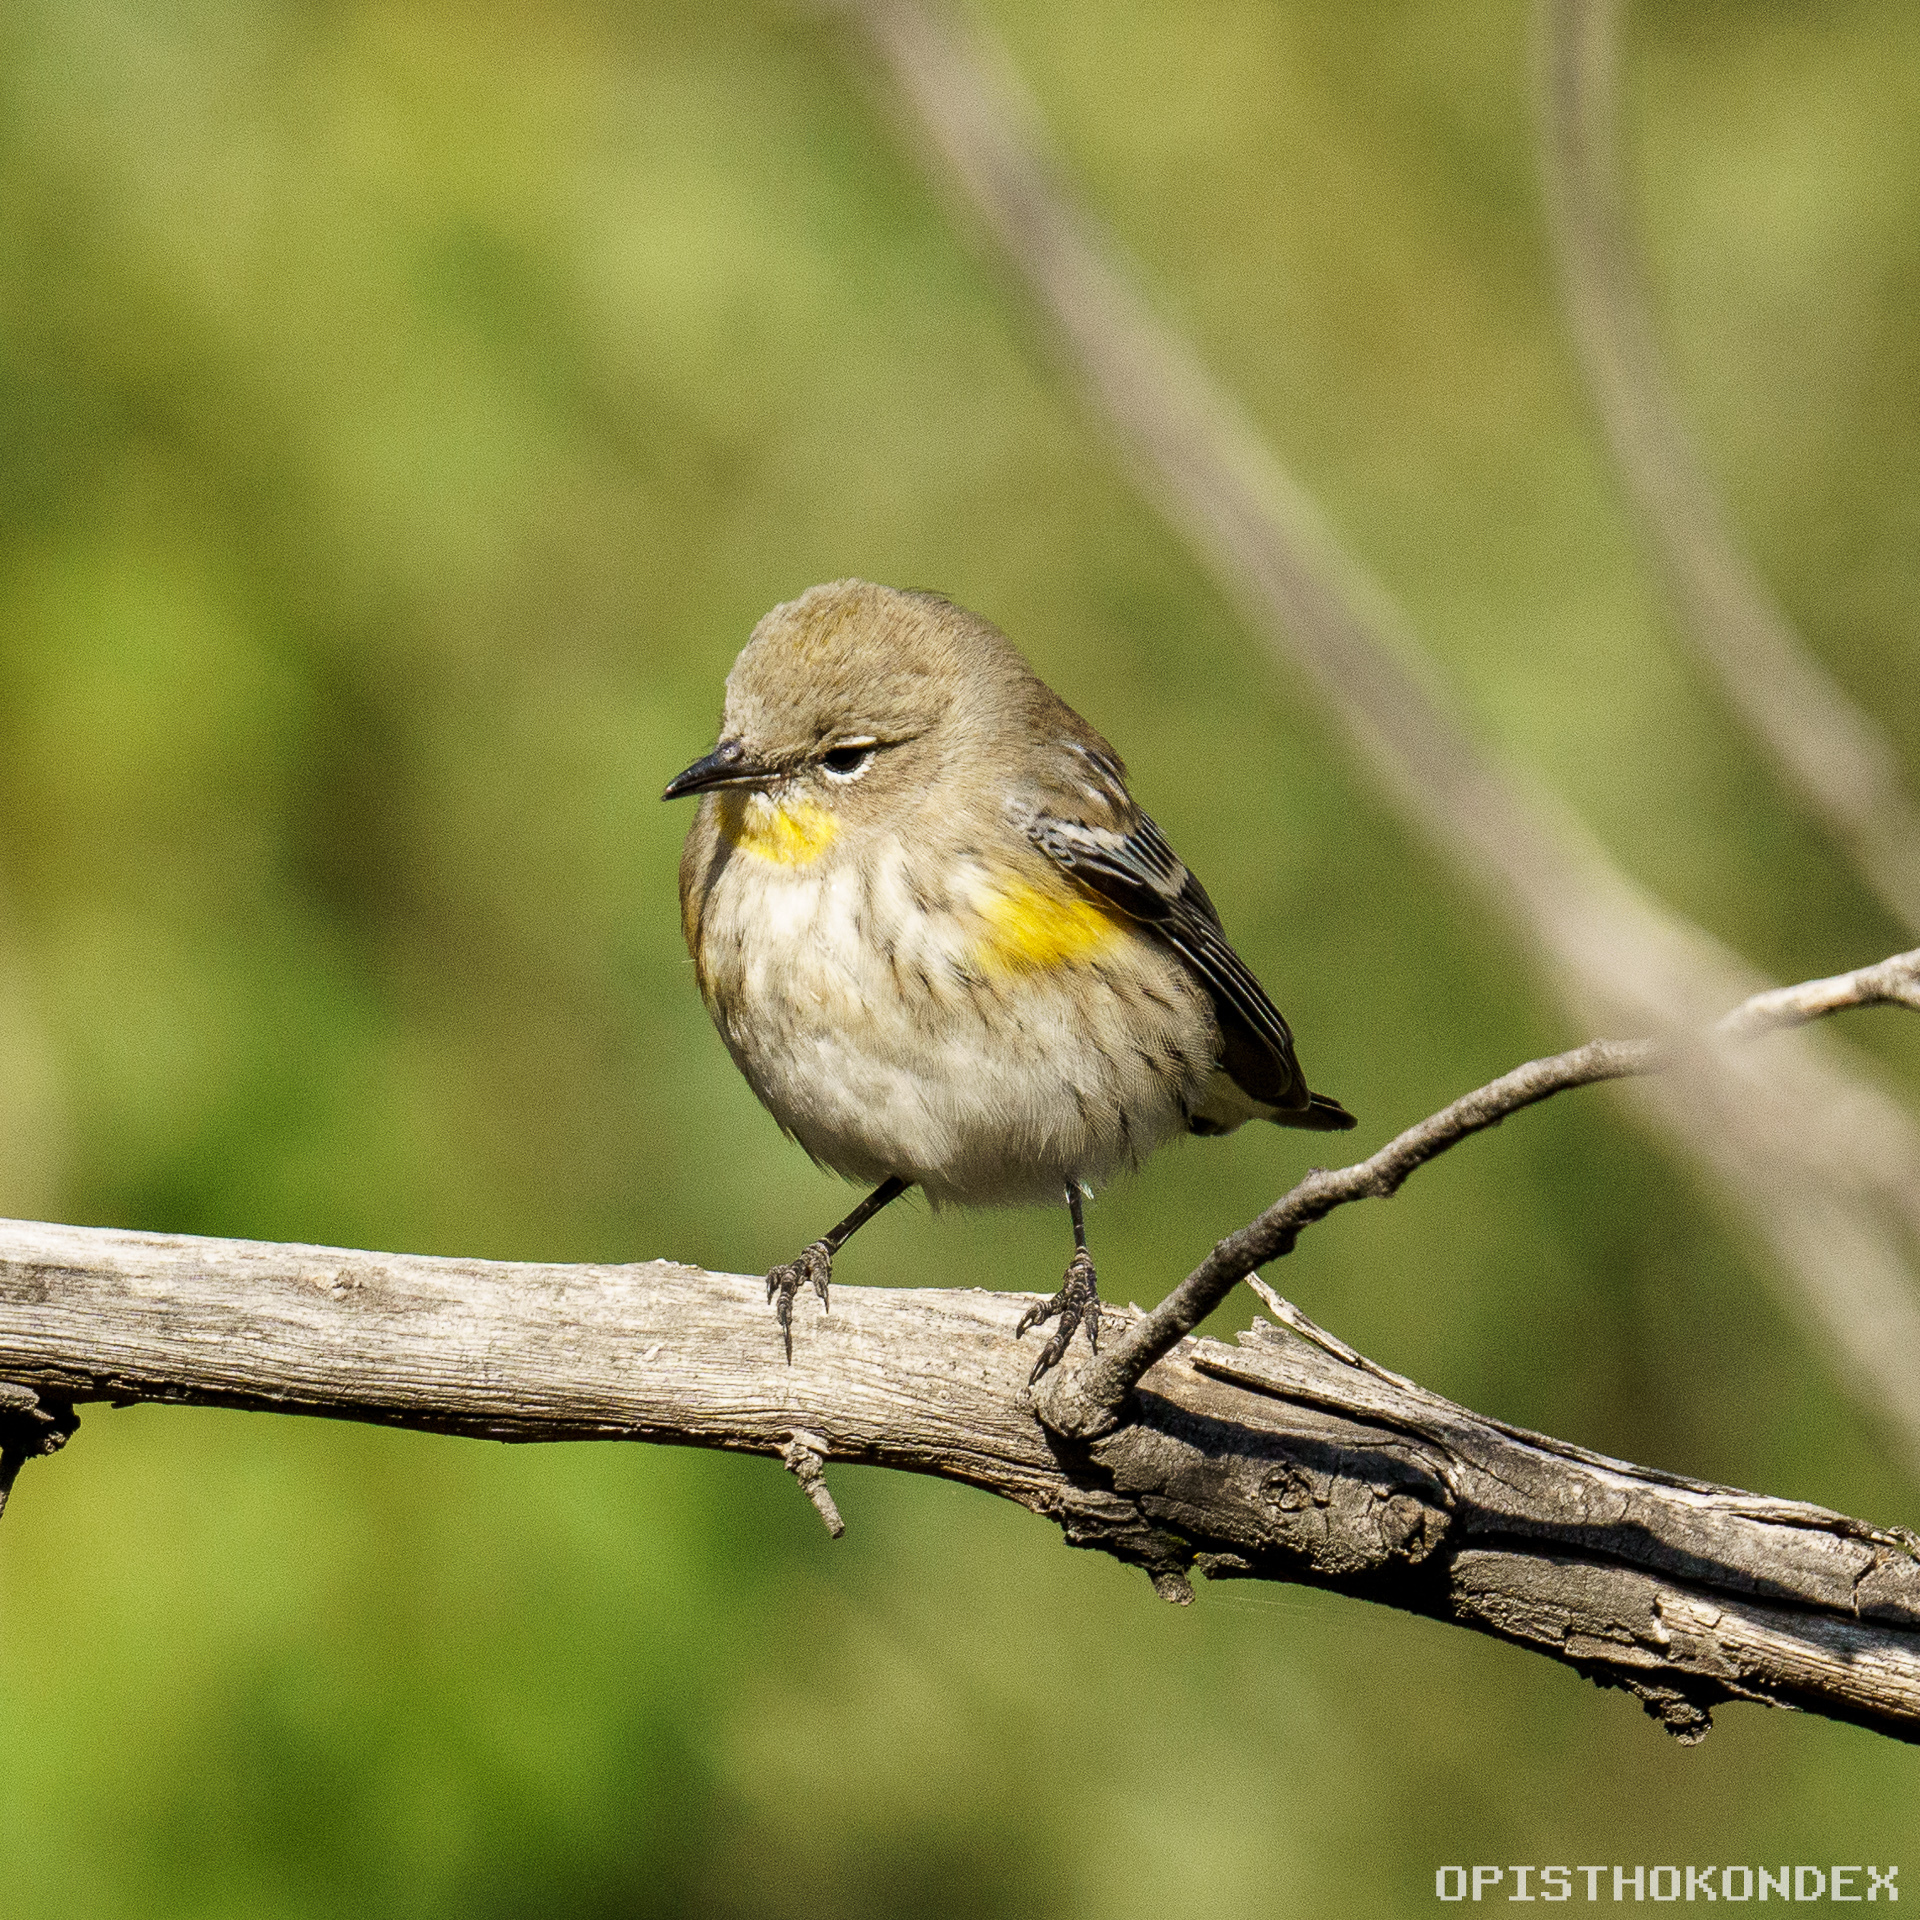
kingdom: Animalia
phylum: Chordata
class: Aves
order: Passeriformes
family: Parulidae
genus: Setophaga
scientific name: Setophaga coronata
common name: Myrtle warbler
